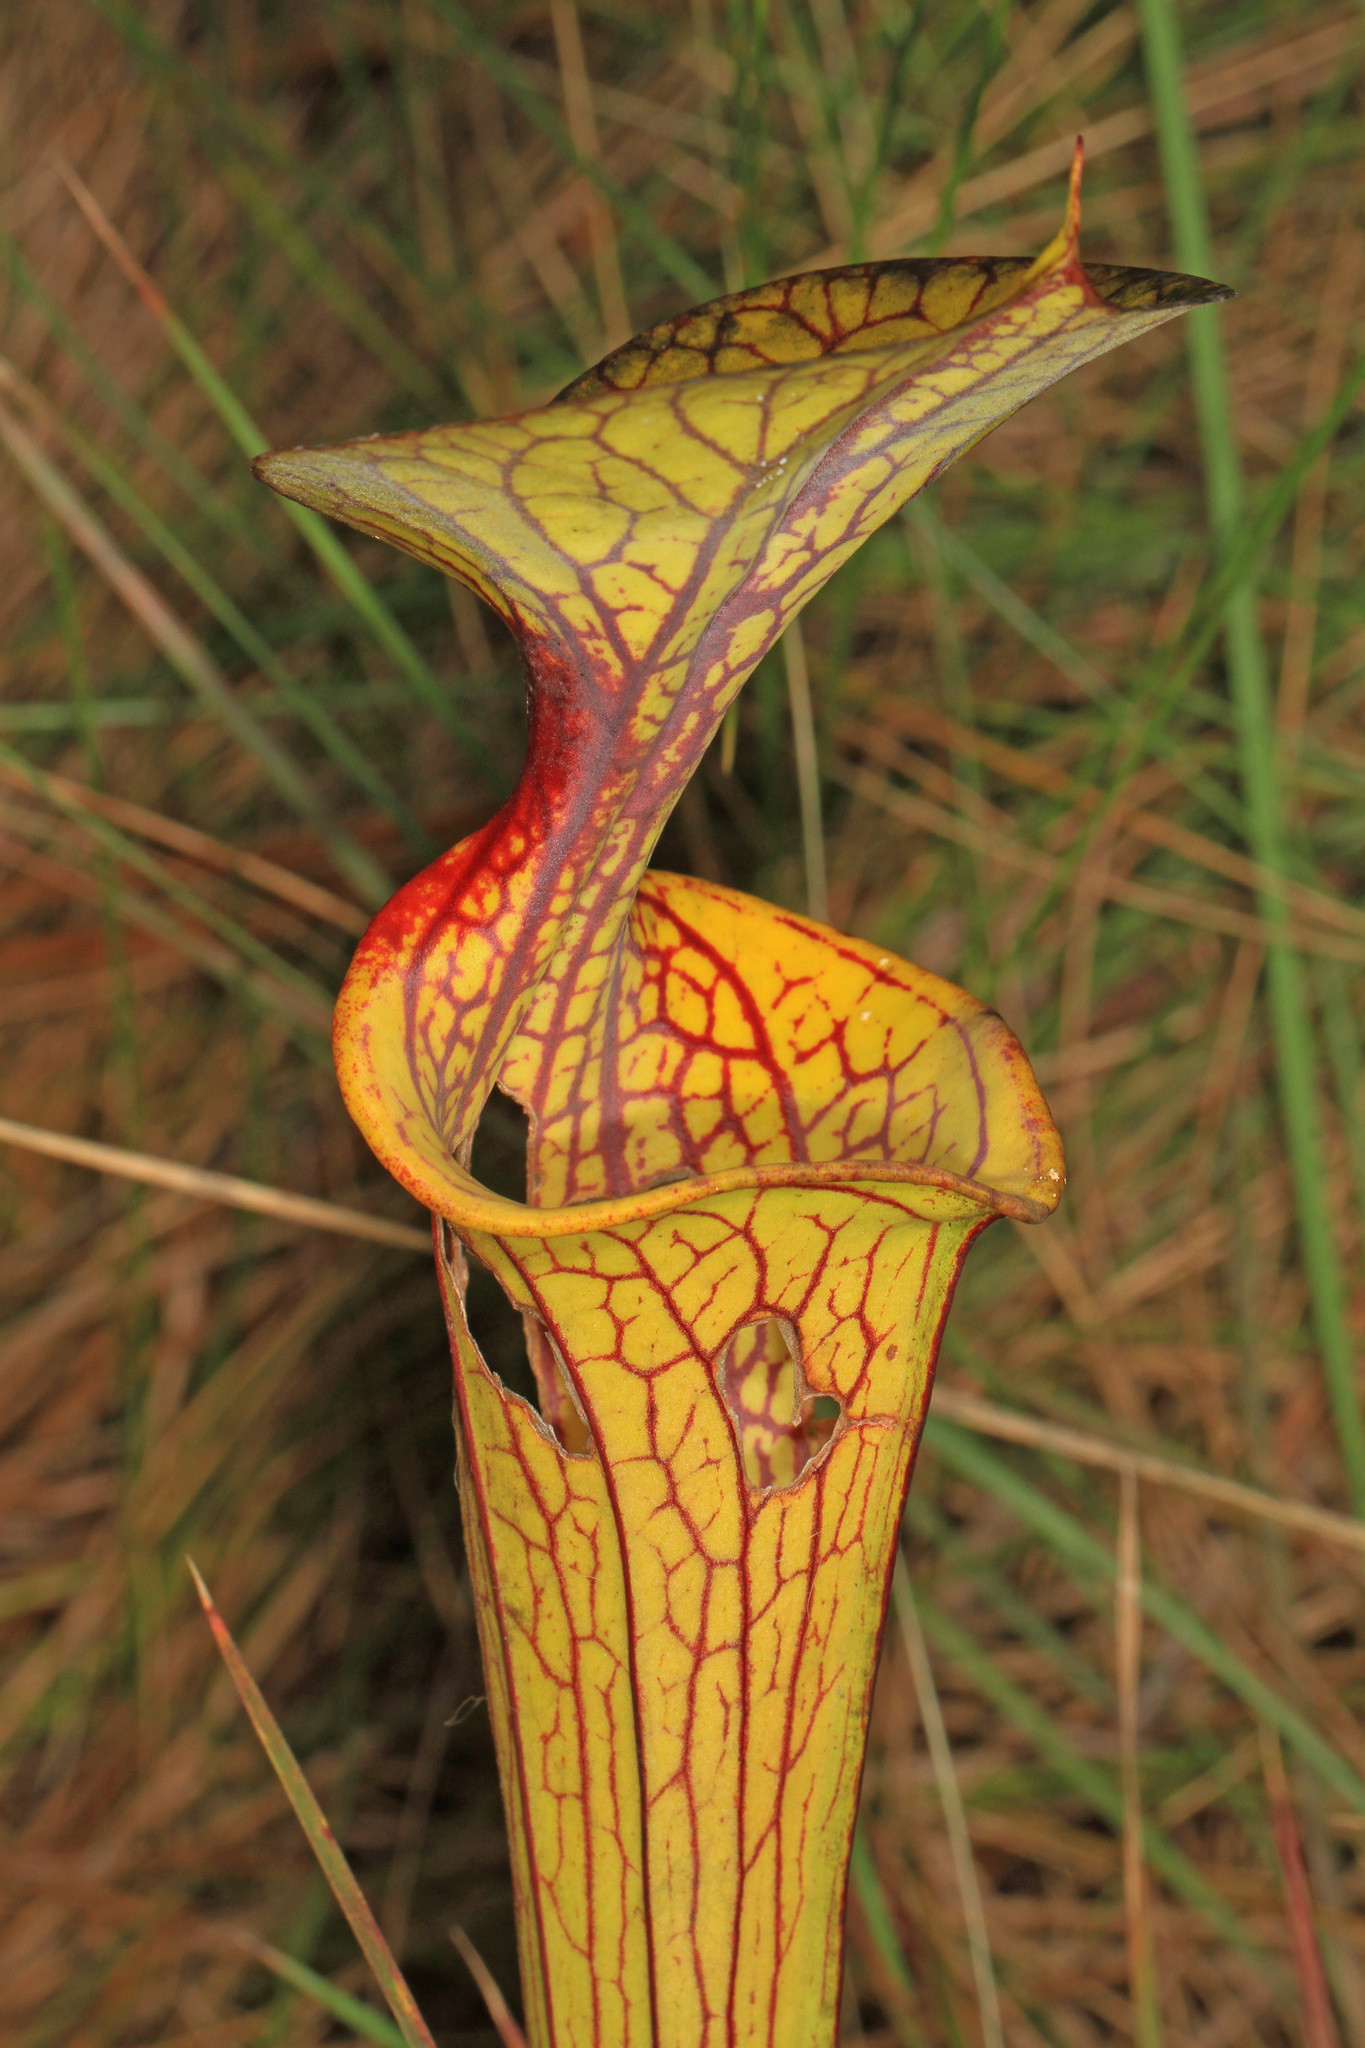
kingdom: Plantae
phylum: Tracheophyta
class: Magnoliopsida
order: Ericales
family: Sarraceniaceae
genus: Sarracenia
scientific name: Sarracenia flava
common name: Trumpets
